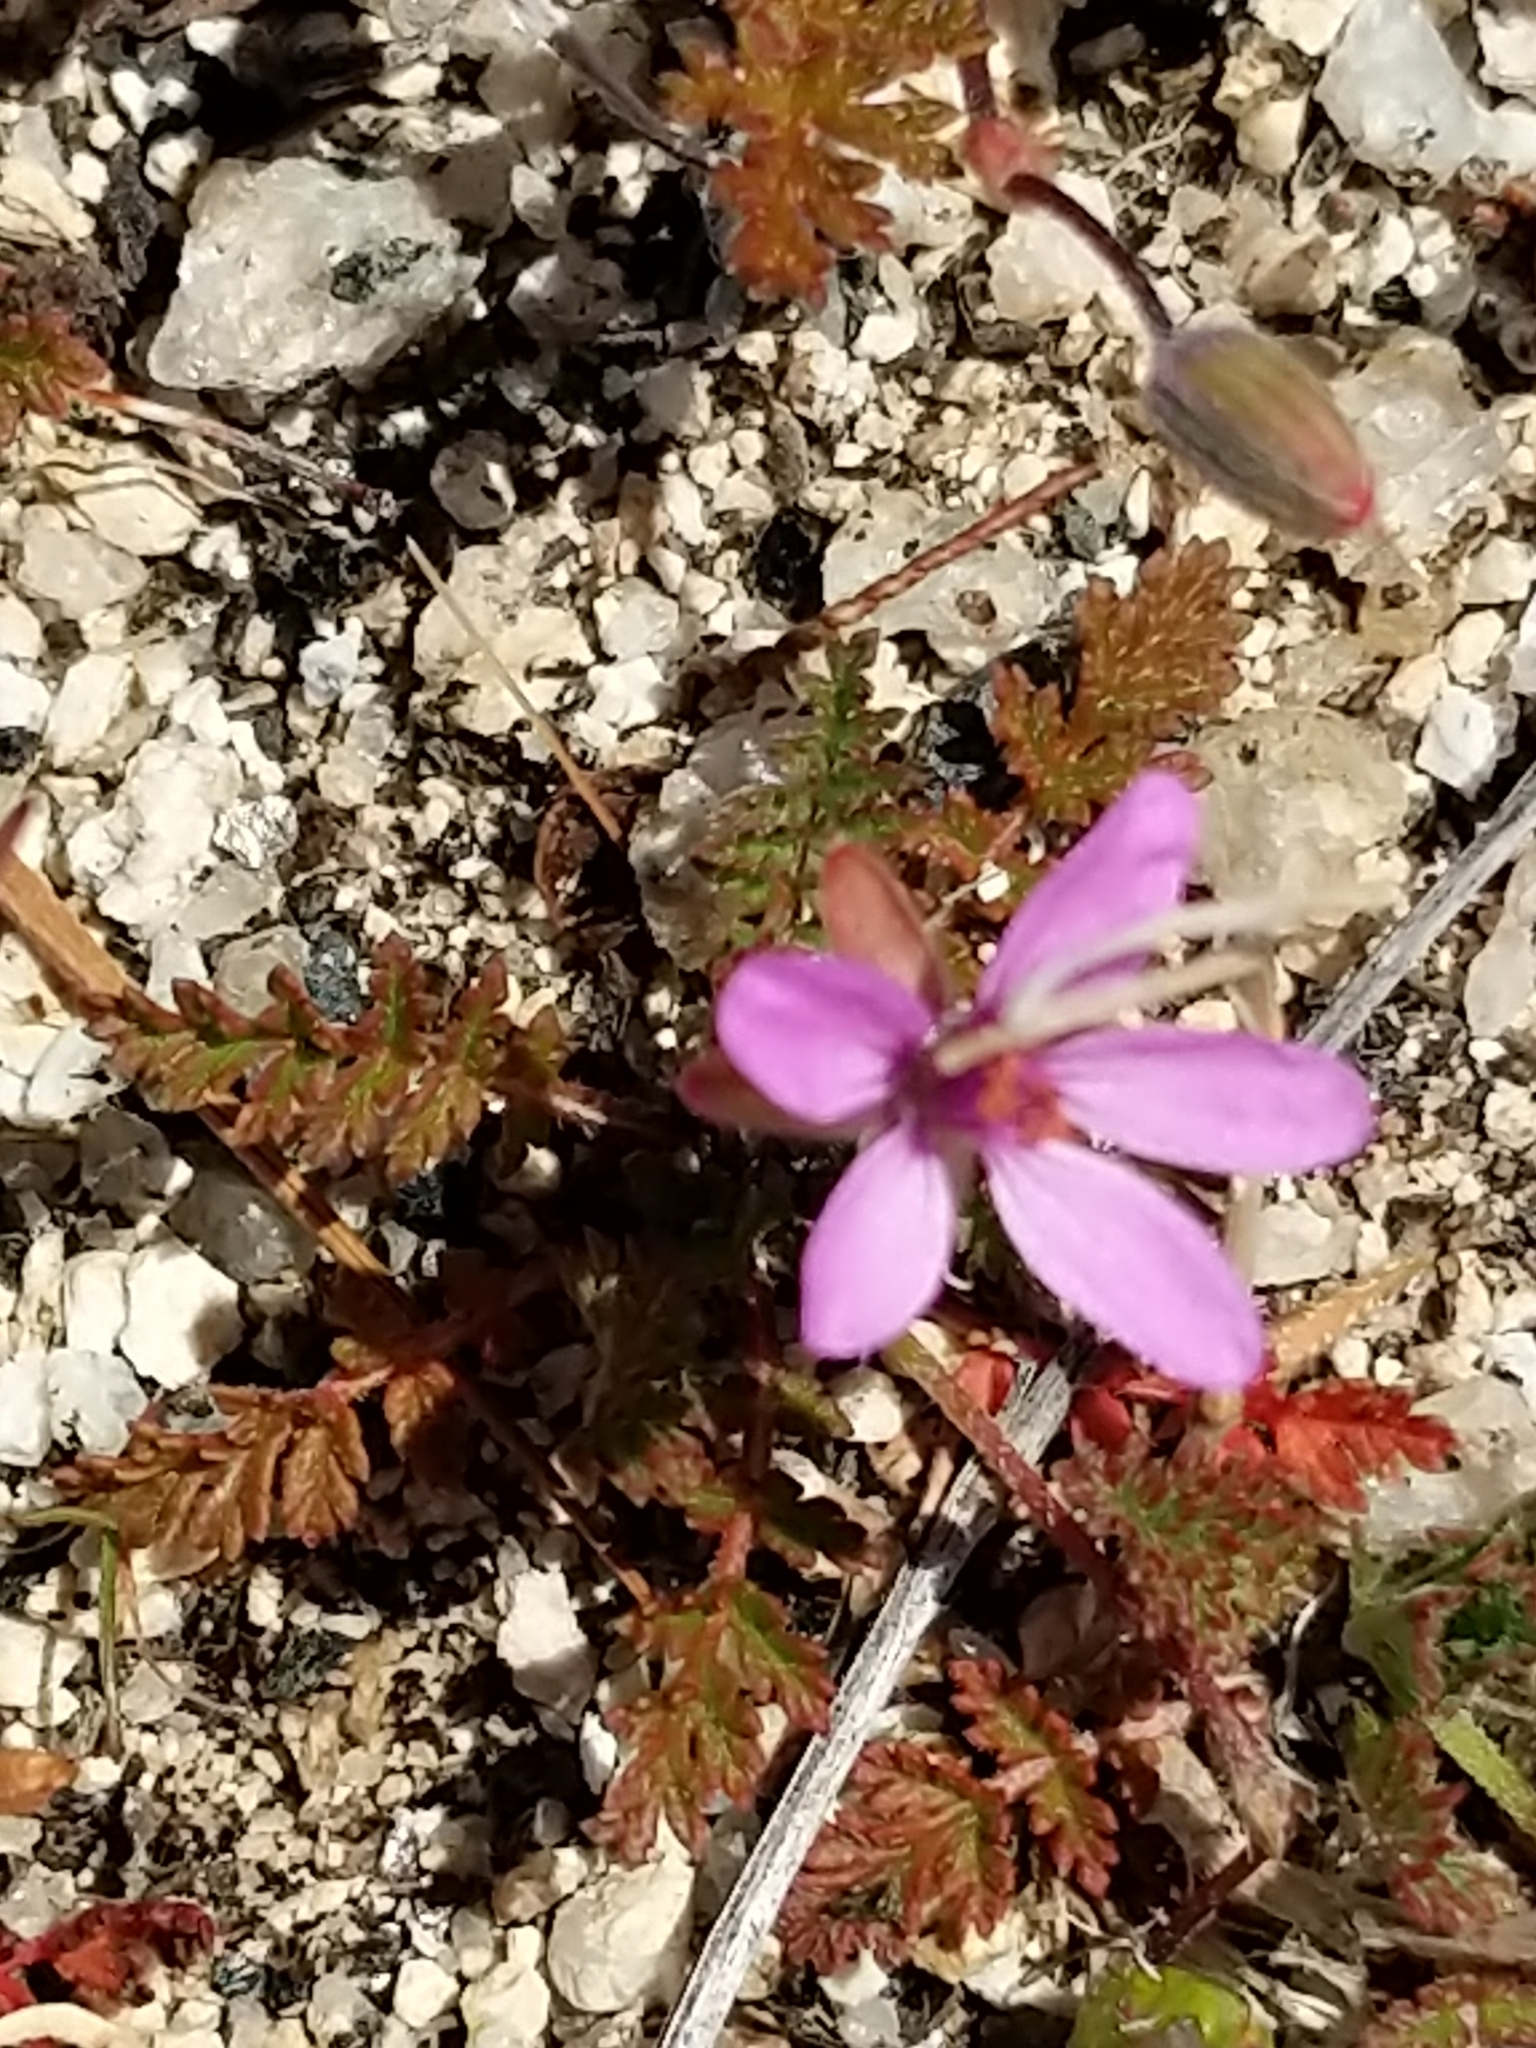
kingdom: Plantae
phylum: Tracheophyta
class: Magnoliopsida
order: Geraniales
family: Geraniaceae
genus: Erodium
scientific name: Erodium cicutarium
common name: Common stork's-bill
